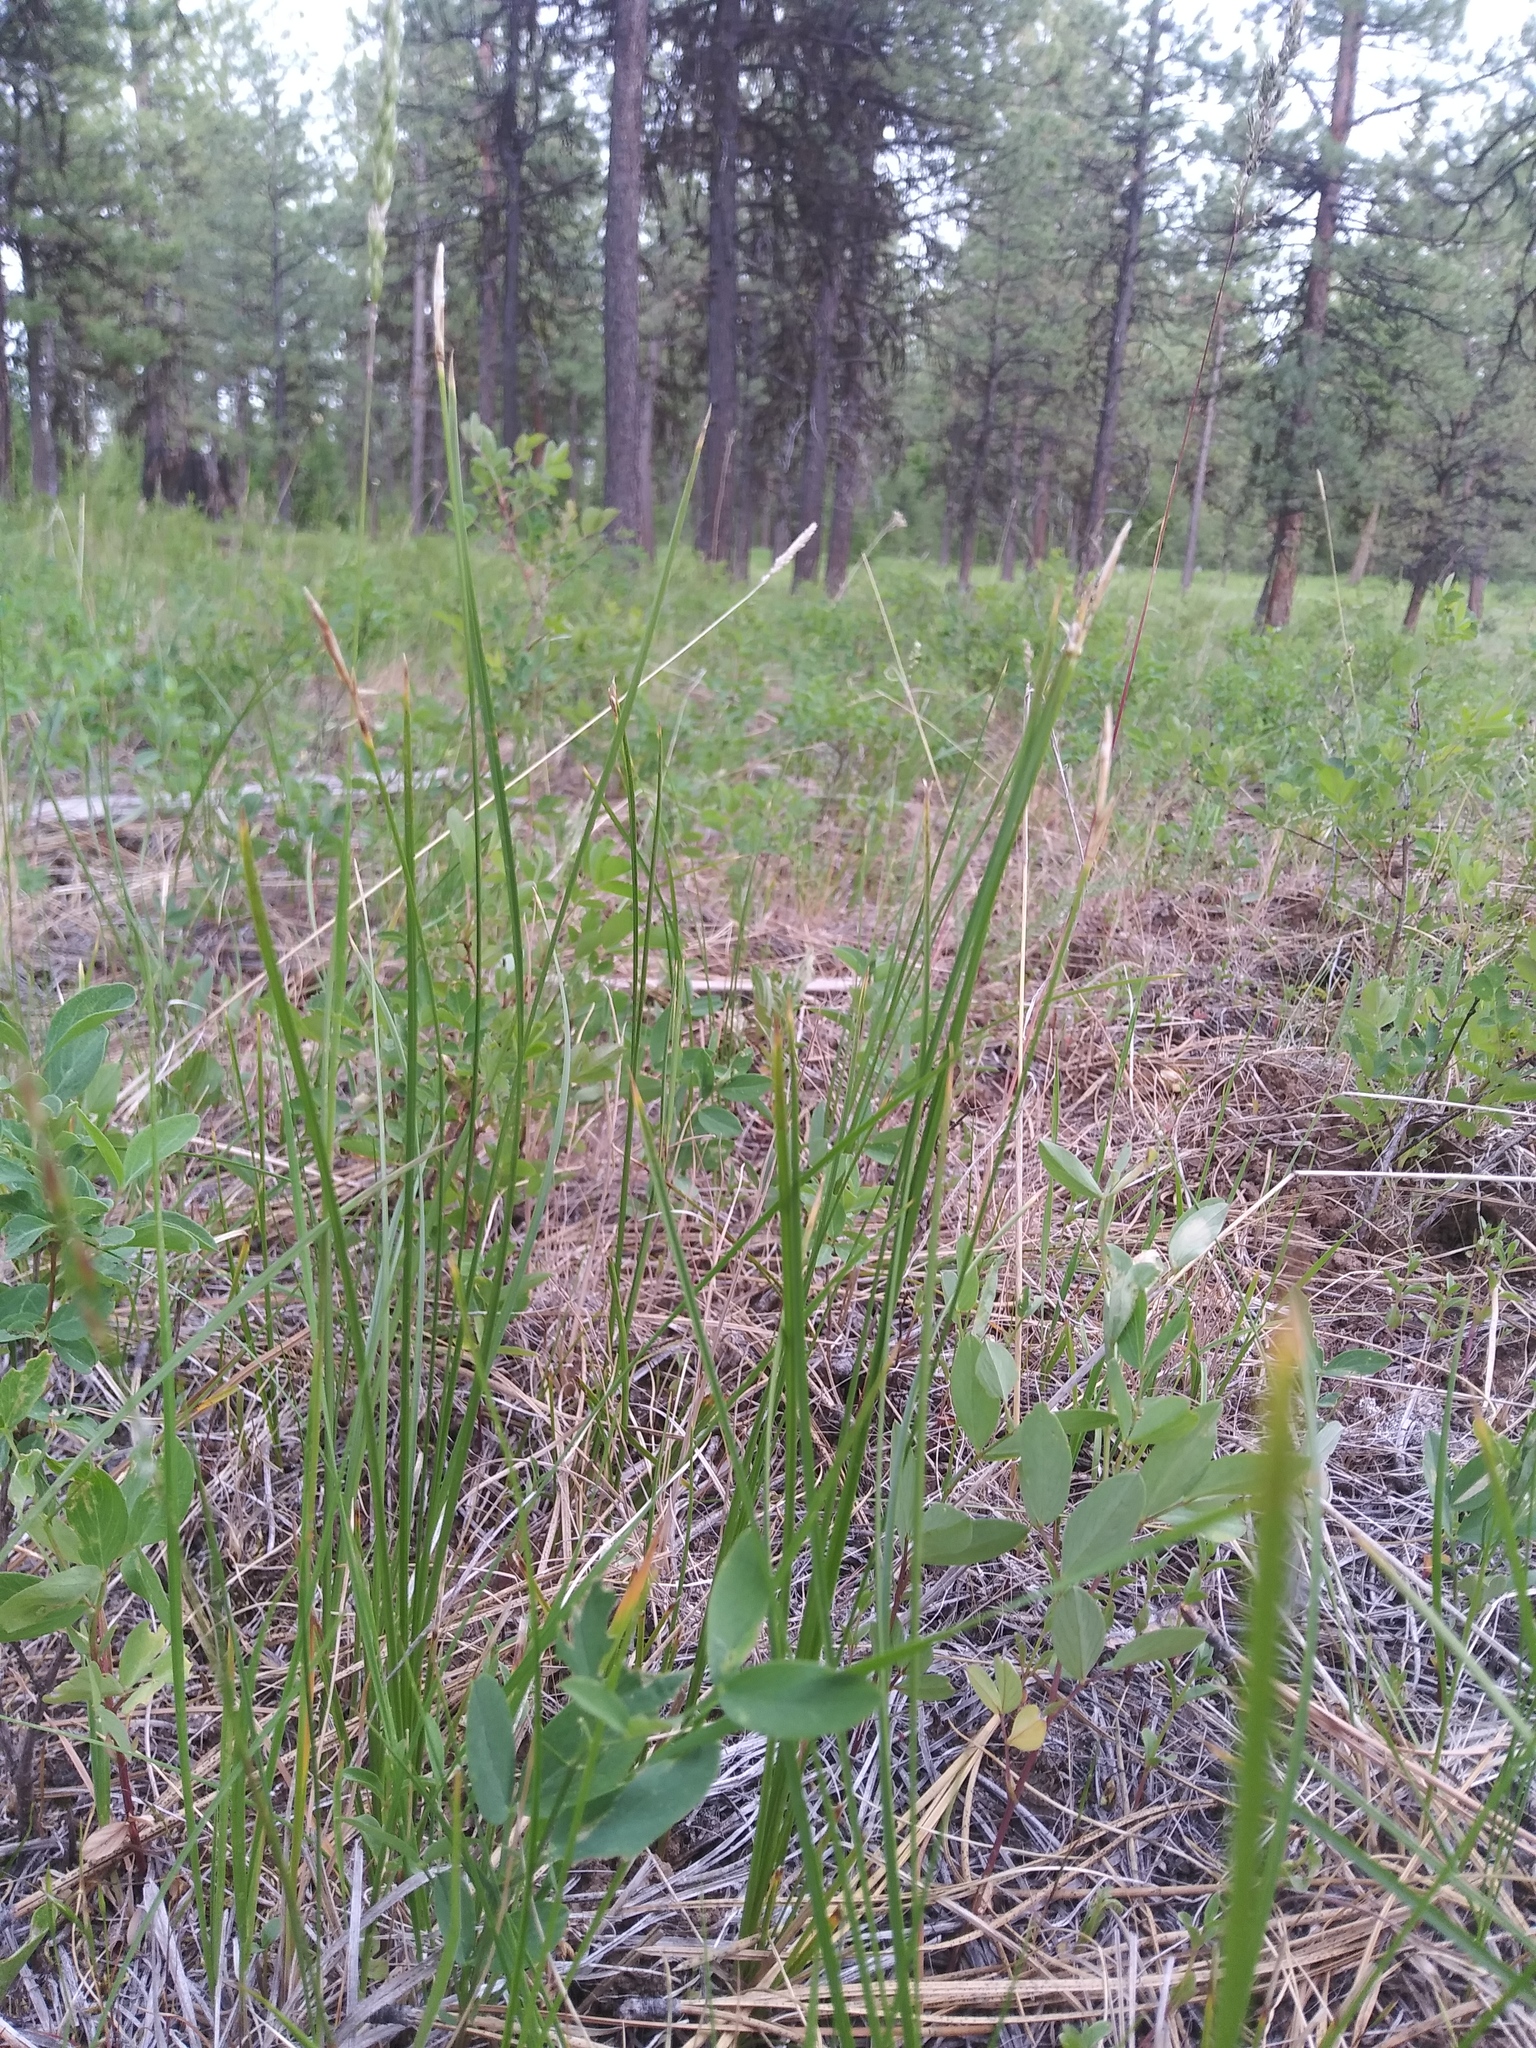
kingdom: Plantae
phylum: Tracheophyta
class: Liliopsida
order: Poales
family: Cyperaceae
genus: Carex
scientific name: Carex geyeri
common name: Elk sedge
